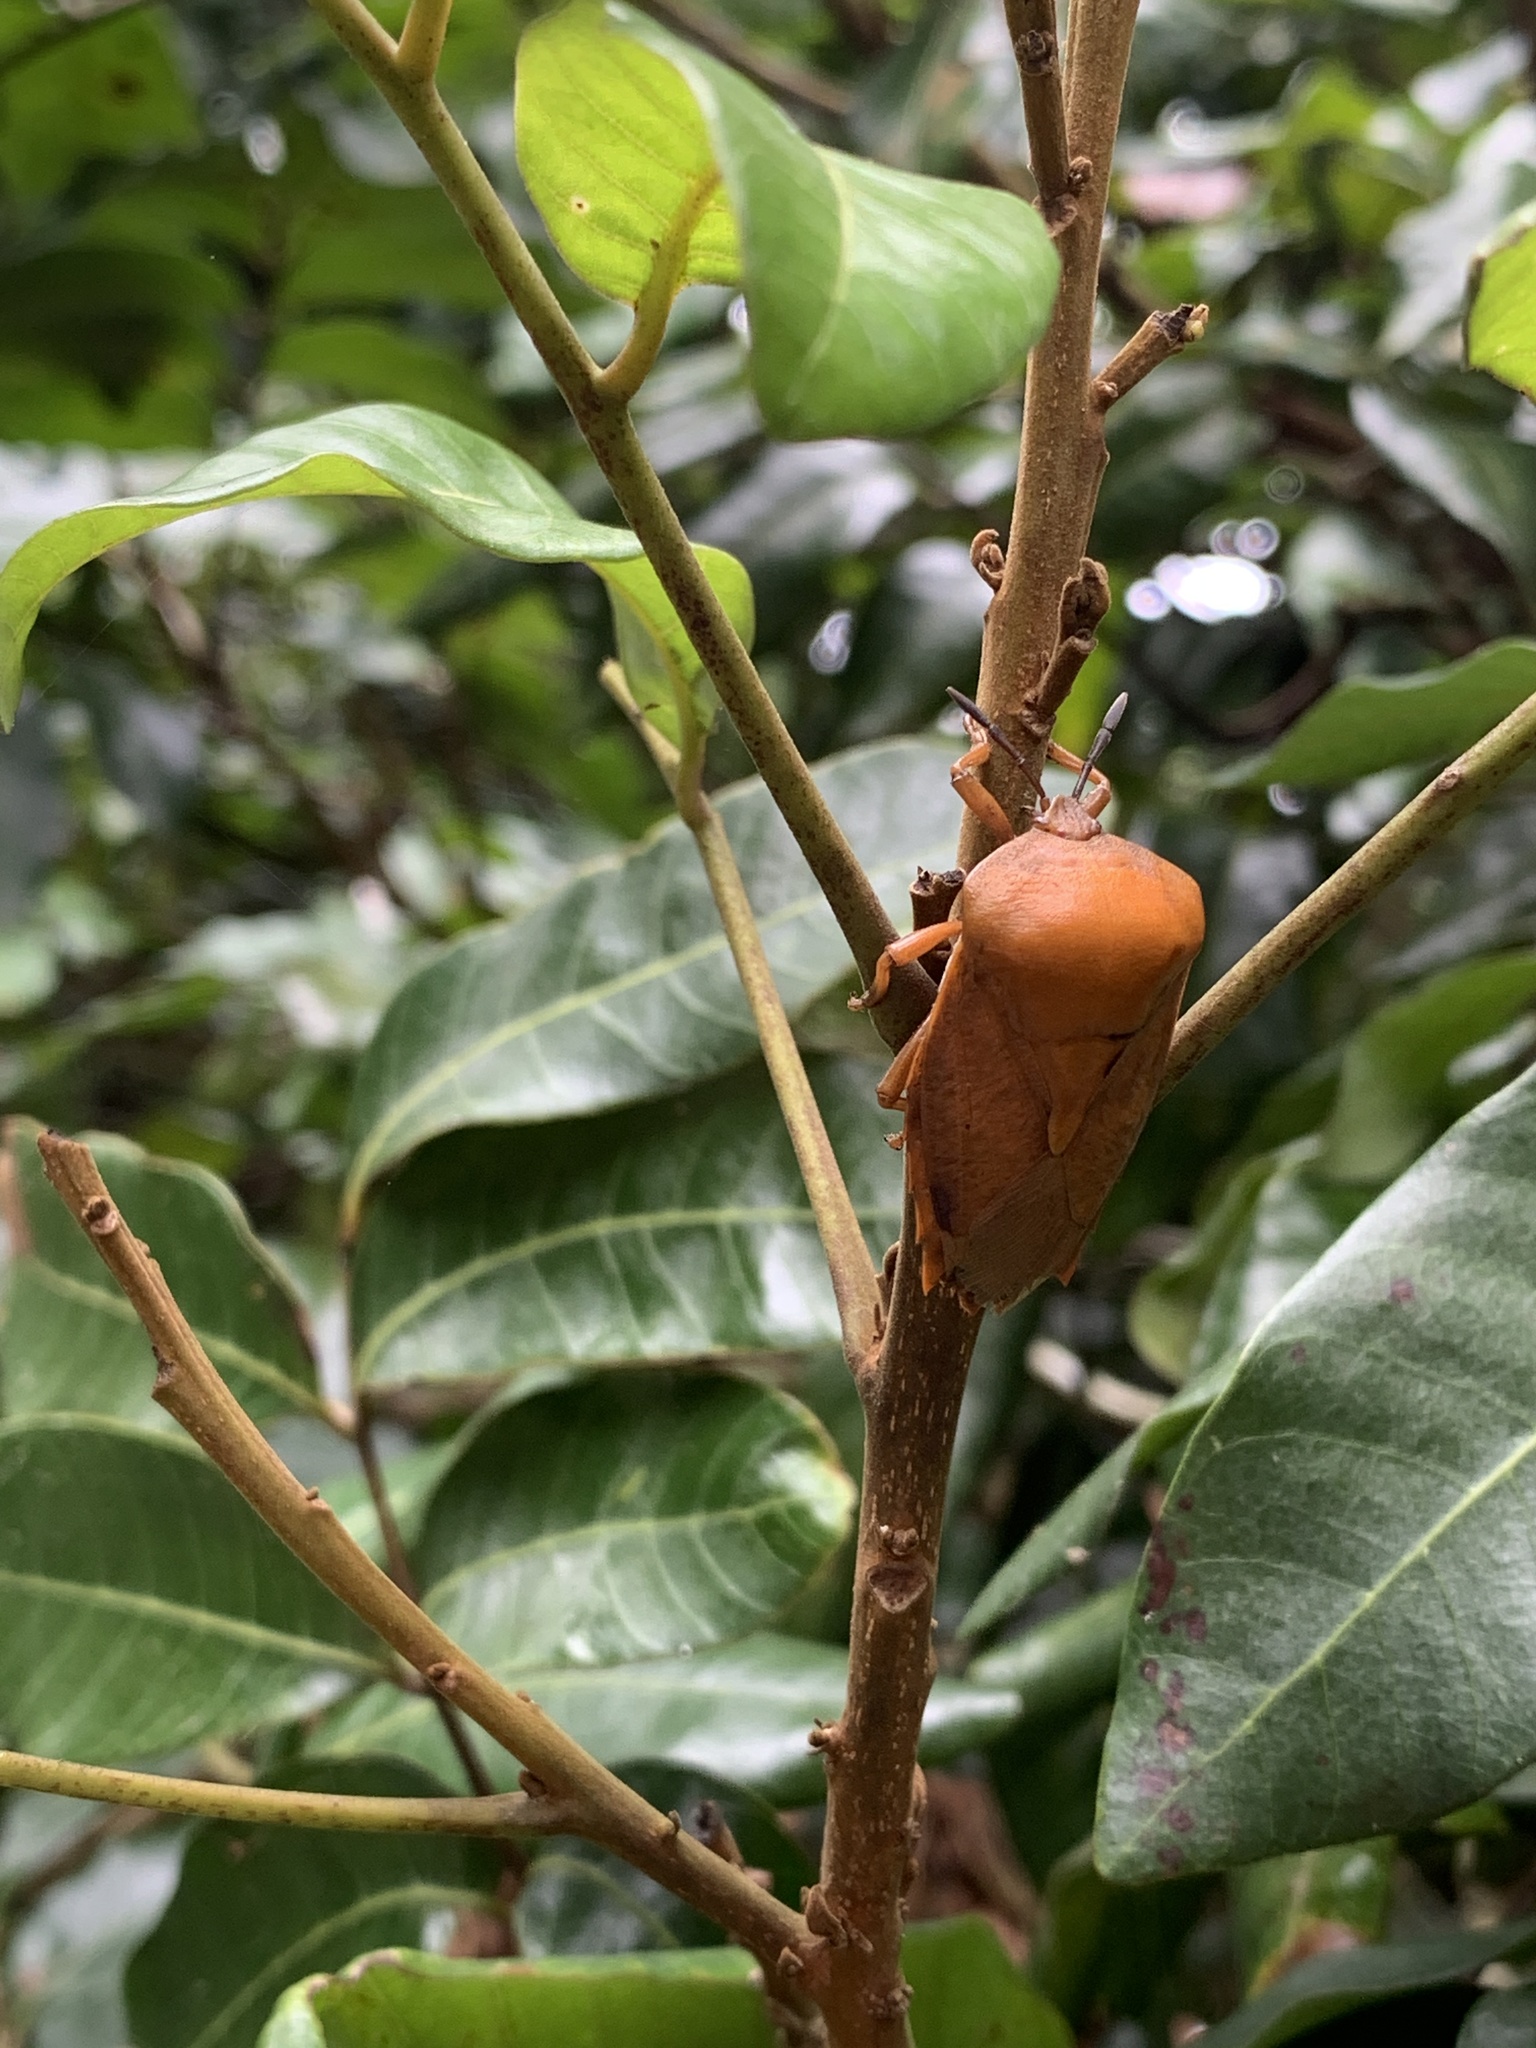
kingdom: Animalia
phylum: Arthropoda
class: Insecta
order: Hemiptera
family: Tessaratomidae
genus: Tessaratoma
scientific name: Tessaratoma papillosa
